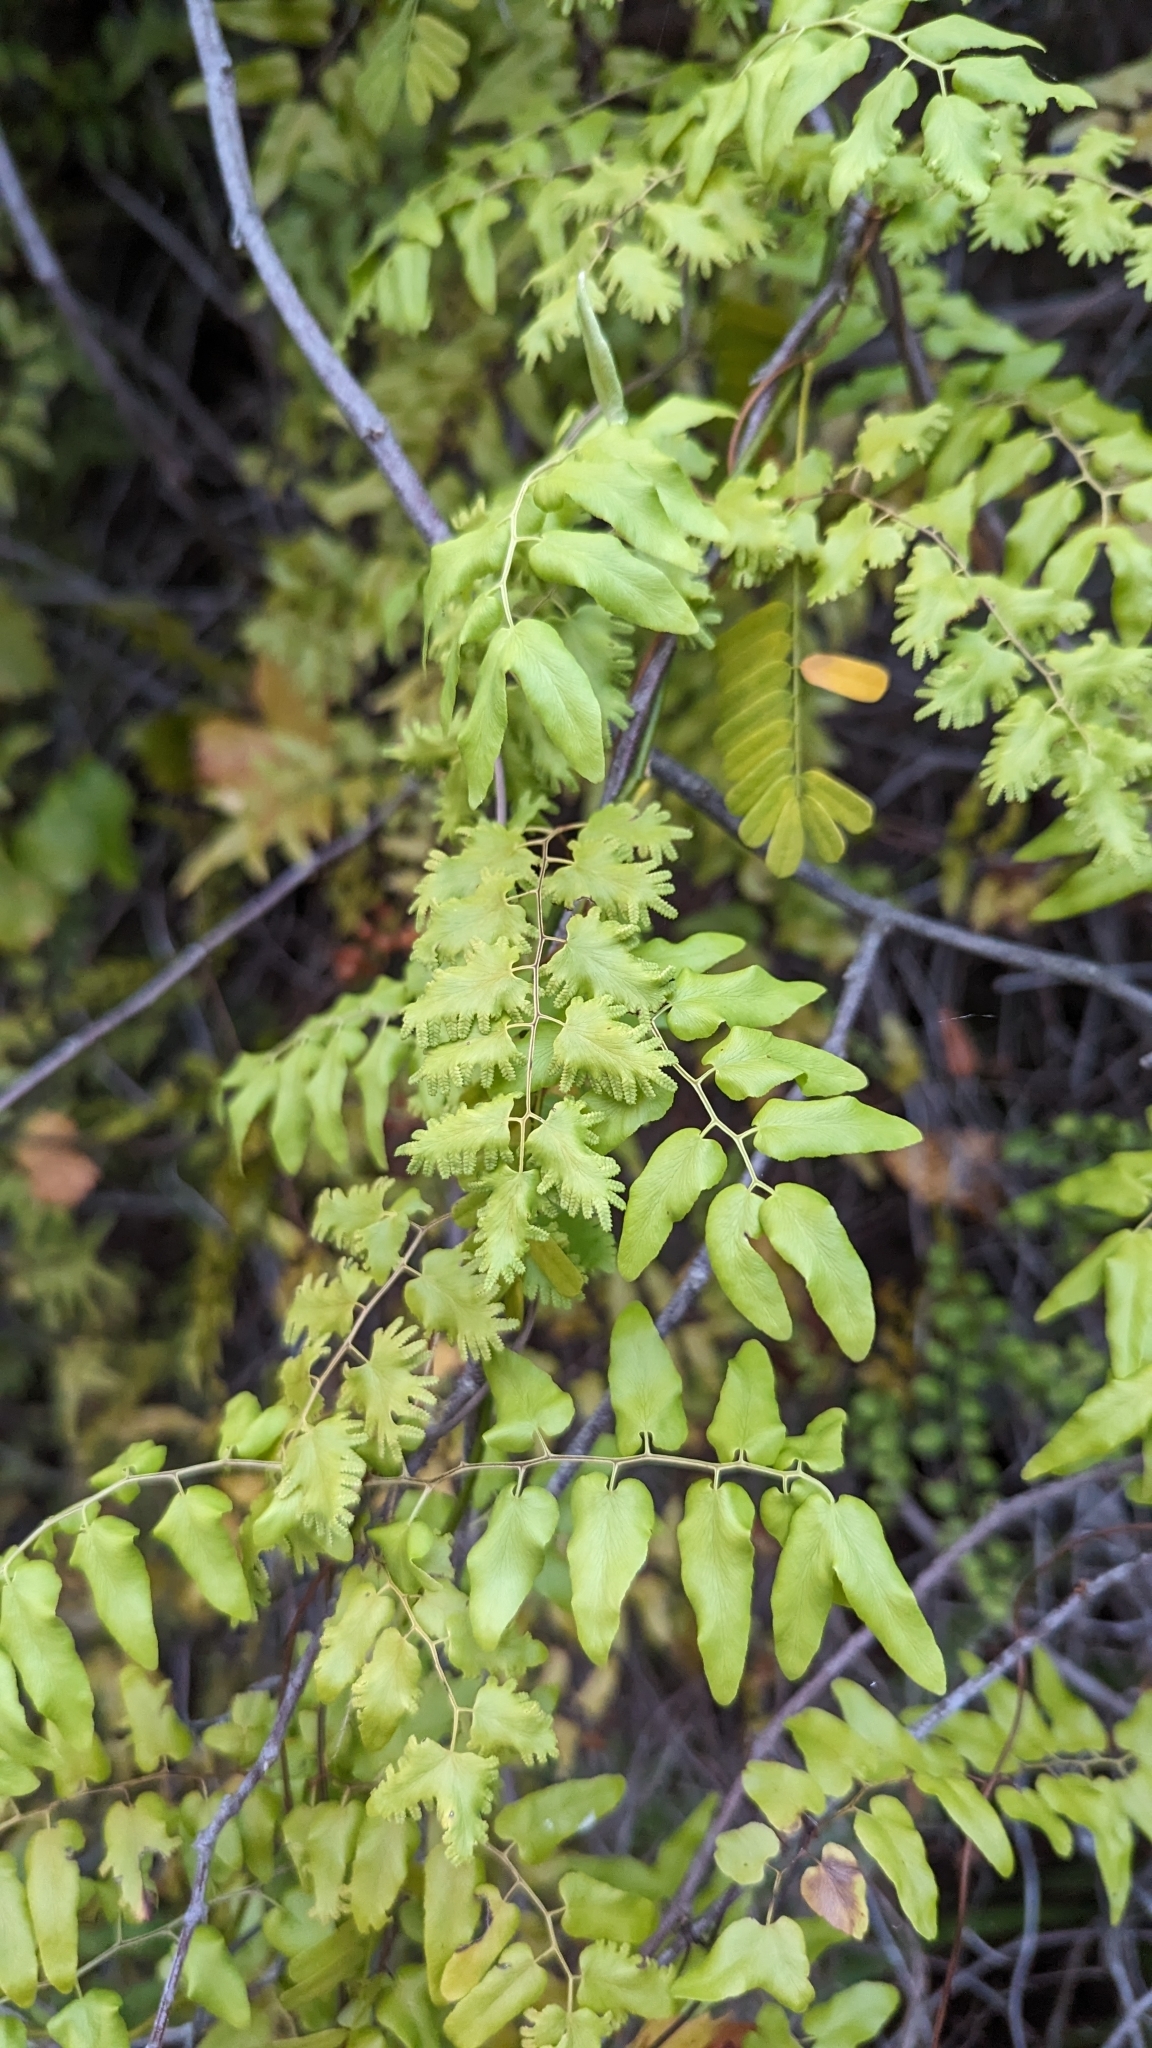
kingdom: Plantae
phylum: Tracheophyta
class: Polypodiopsida
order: Schizaeales
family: Lygodiaceae
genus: Lygodium
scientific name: Lygodium microphyllum
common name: Small-leaf climbing fern
